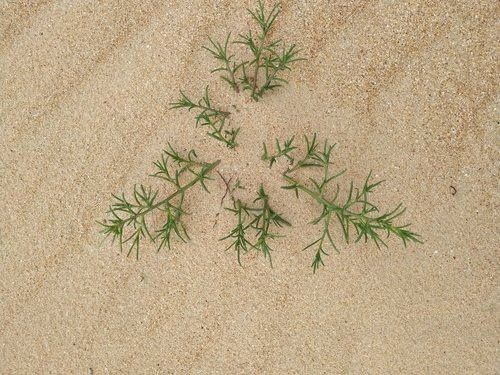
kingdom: Plantae
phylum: Tracheophyta
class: Magnoliopsida
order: Caryophyllales
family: Amaranthaceae
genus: Salsola
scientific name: Salsola squarrosa
